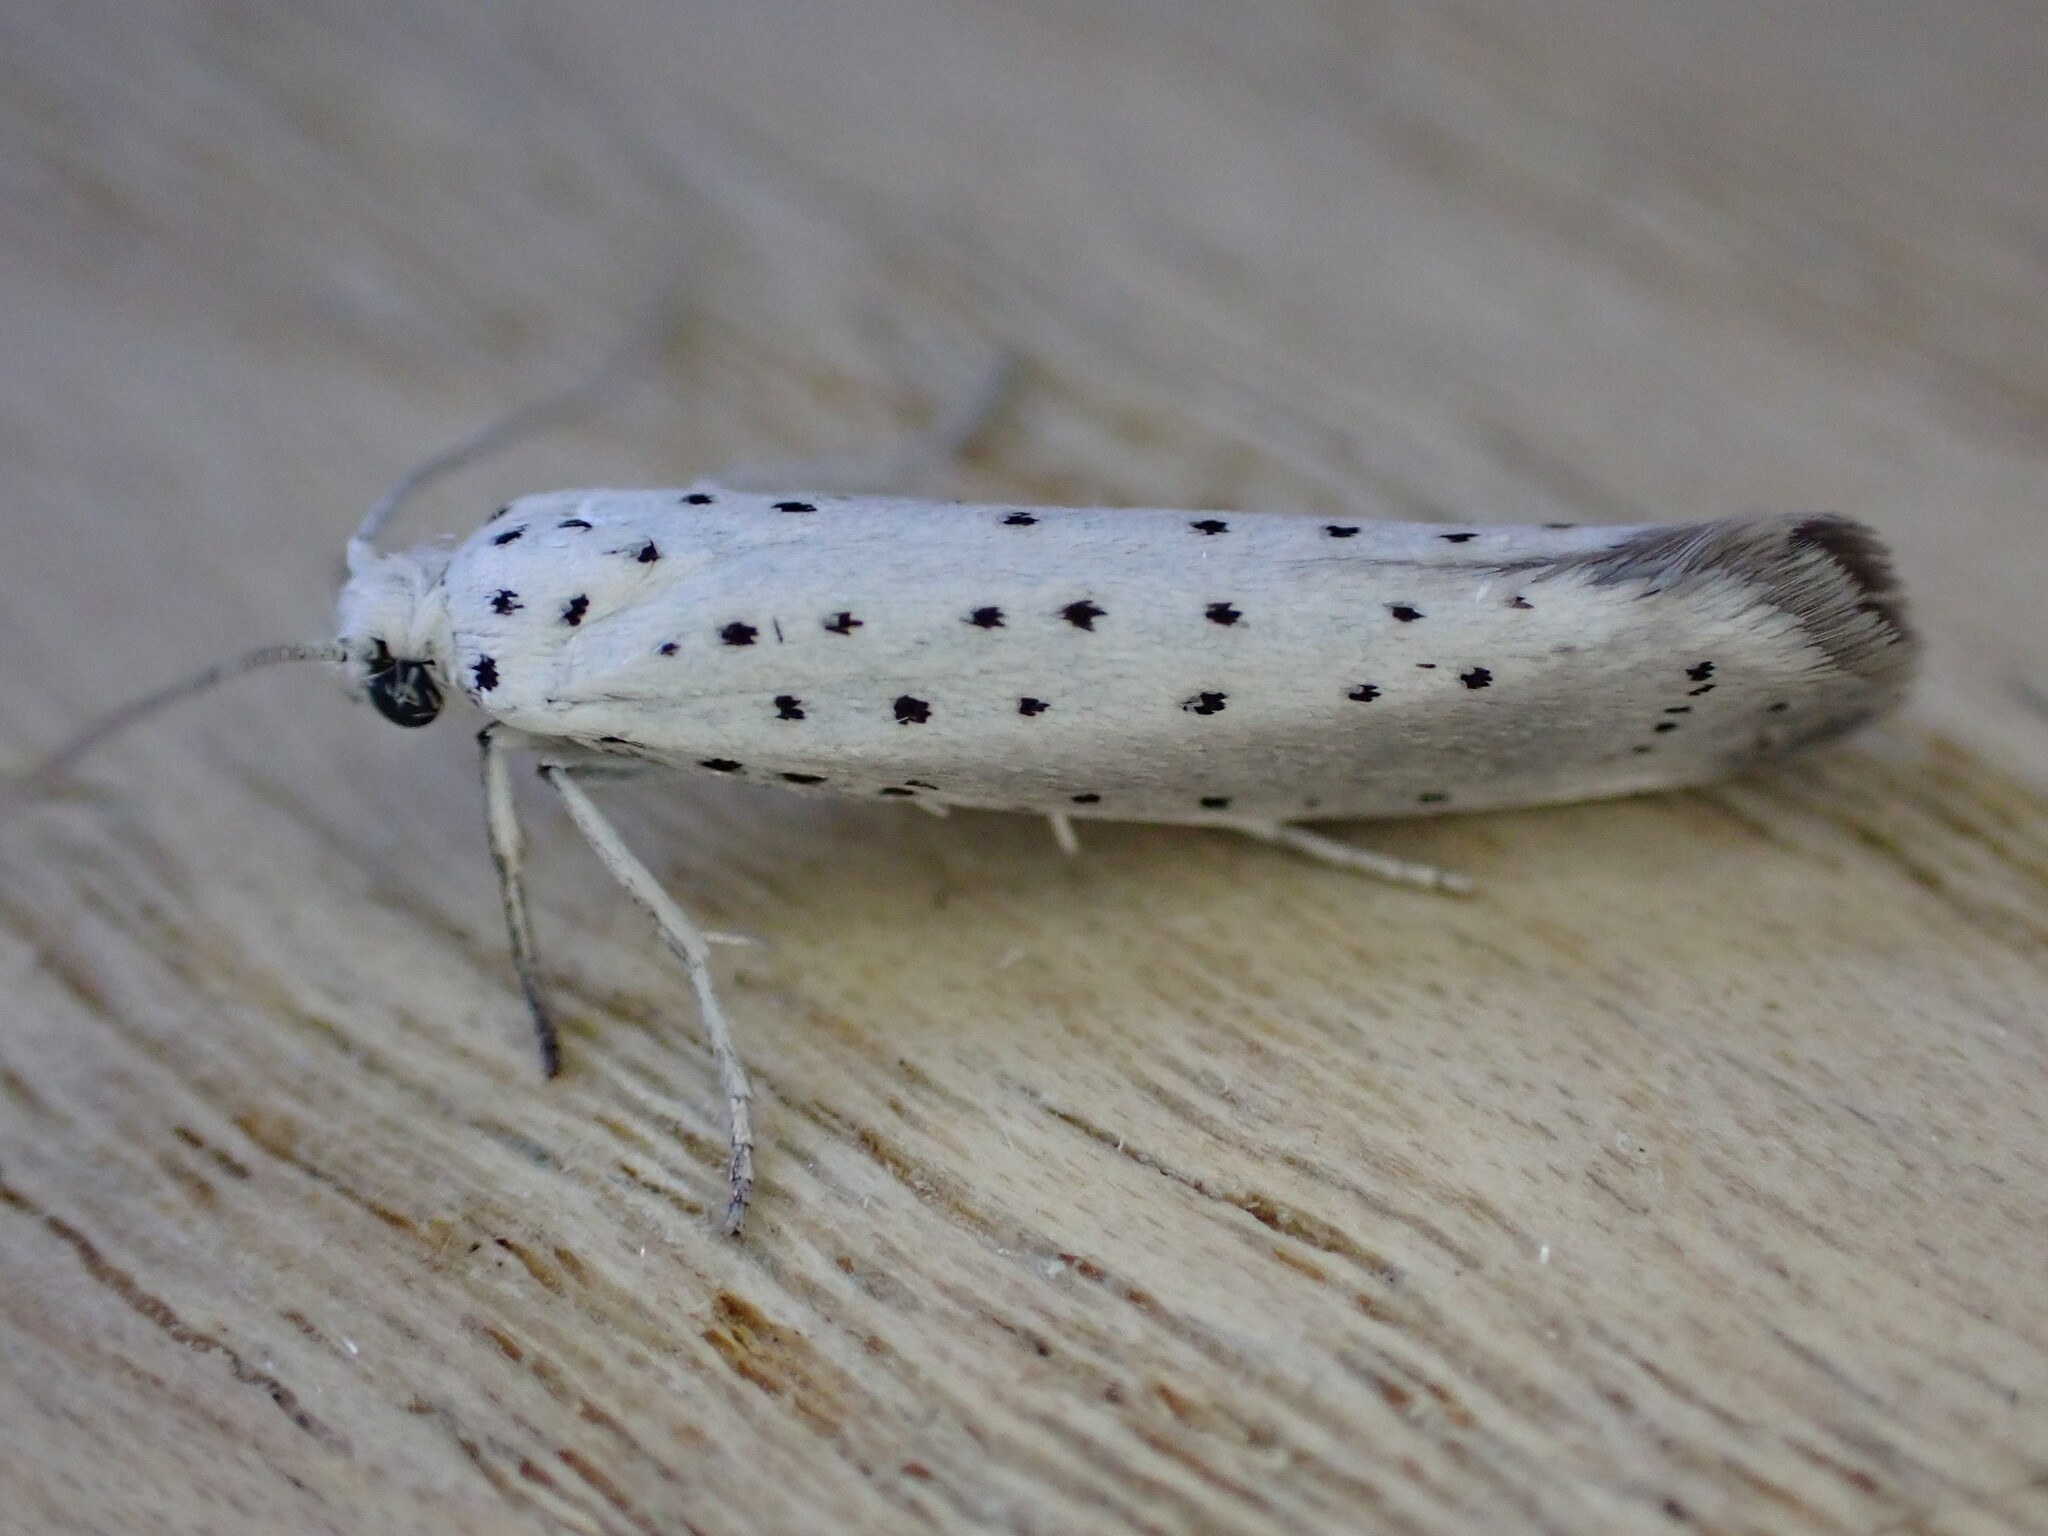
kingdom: Animalia
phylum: Arthropoda
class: Insecta
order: Lepidoptera
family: Yponomeutidae
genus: Yponomeuta
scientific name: Yponomeuta evonymella
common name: Bird-cherry ermine
